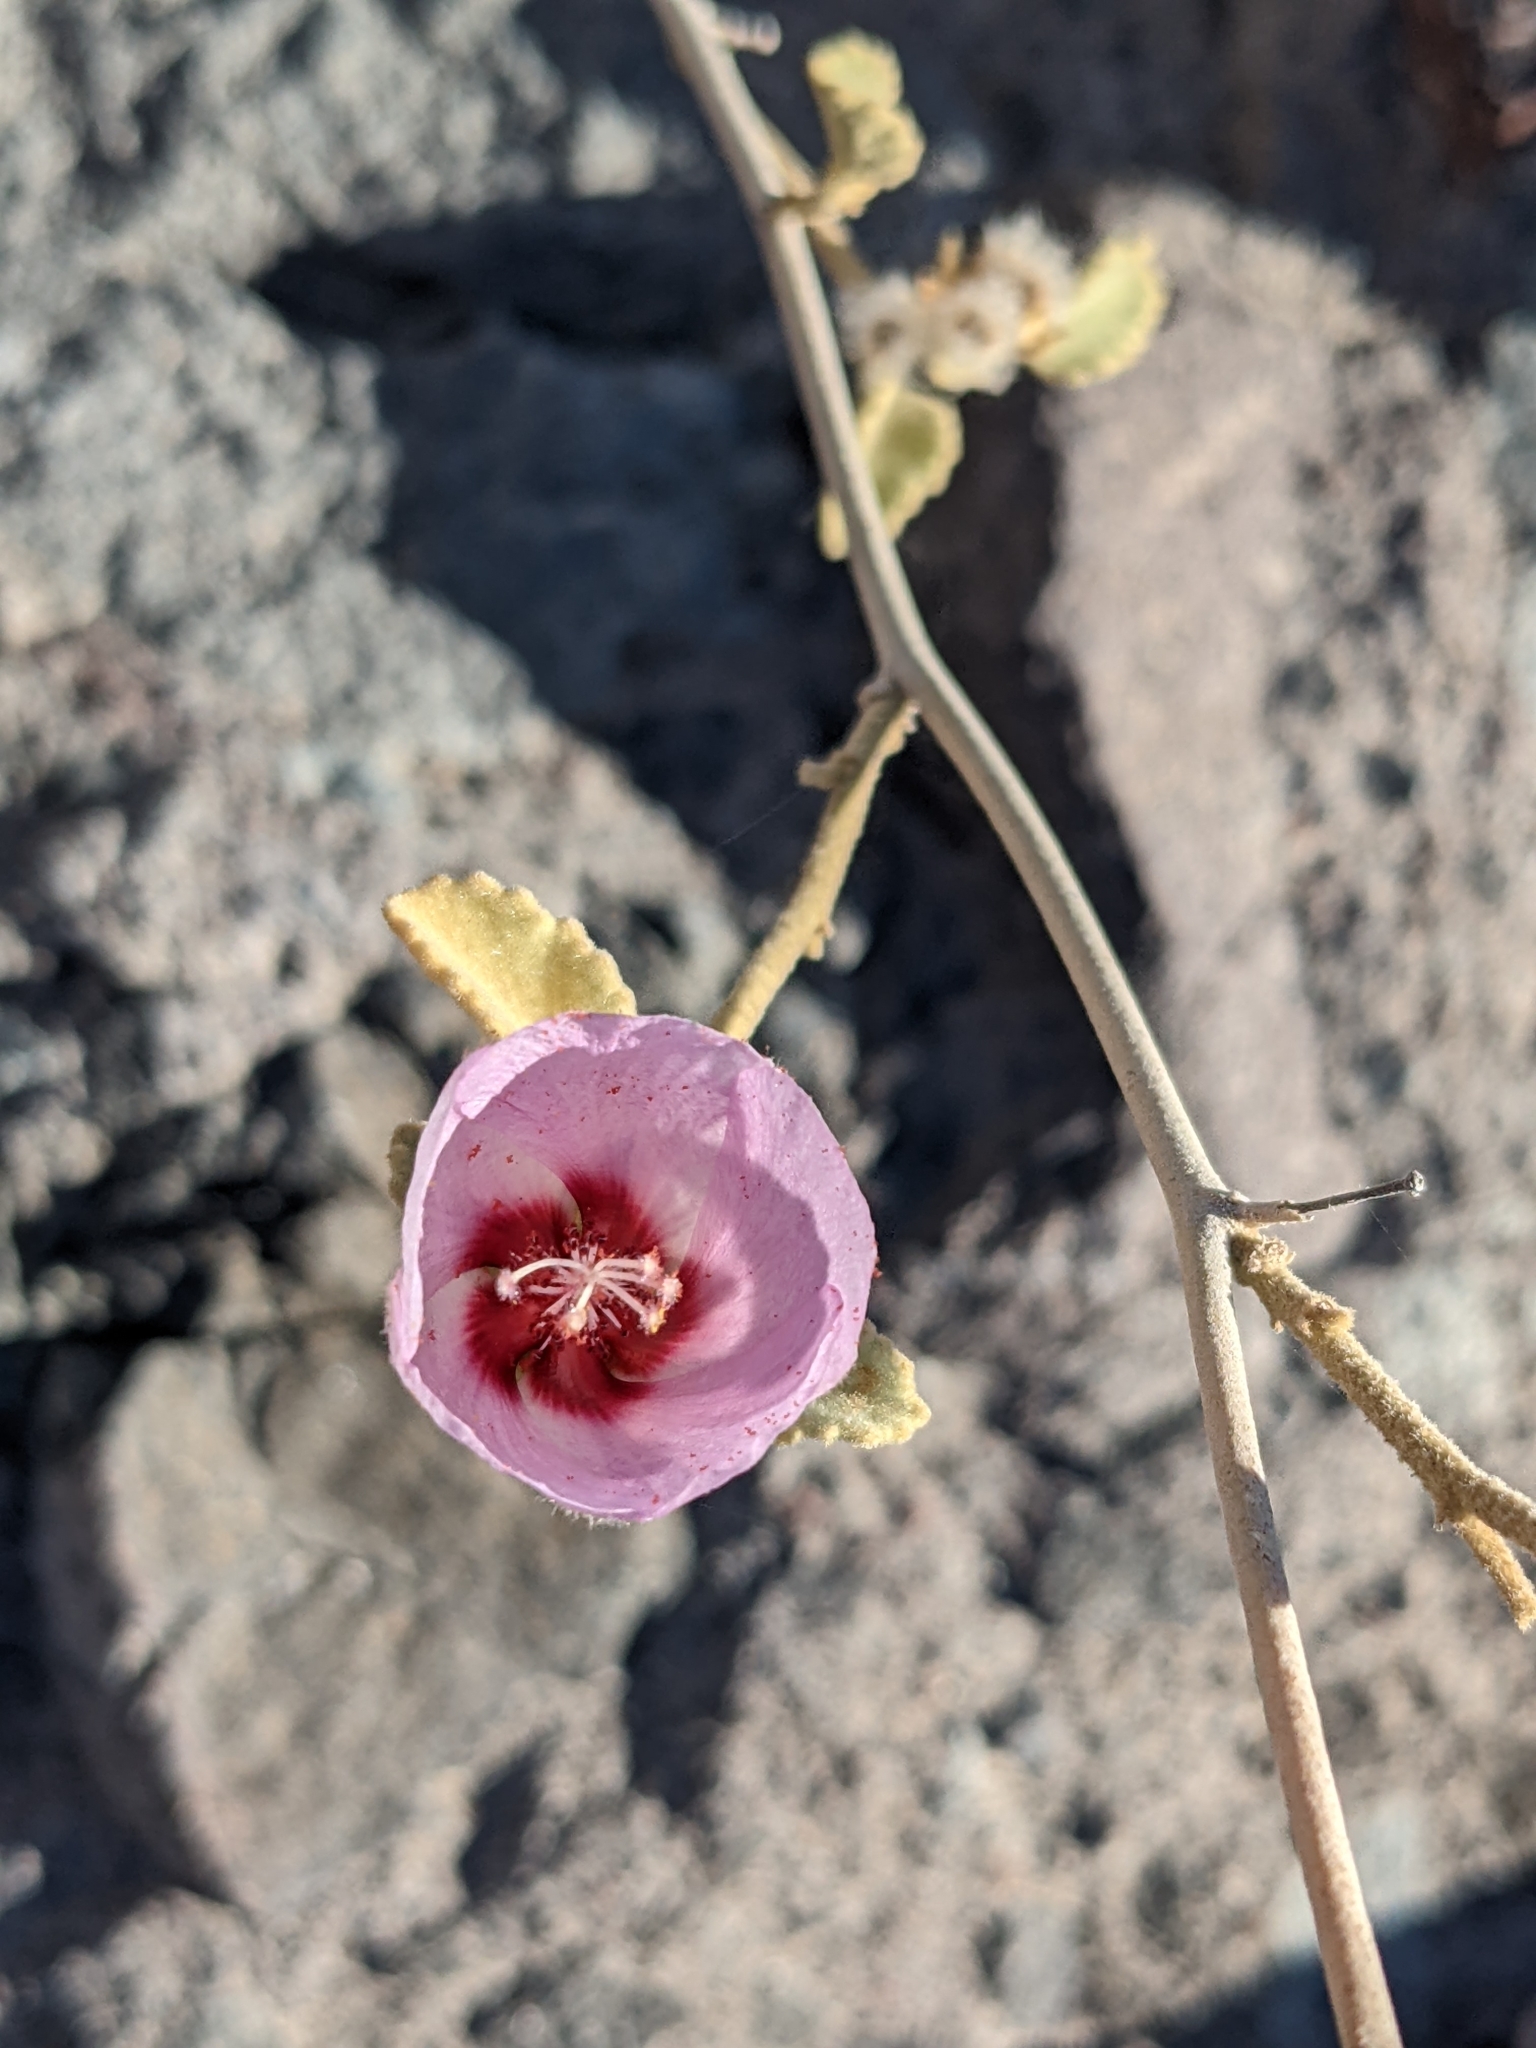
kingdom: Plantae
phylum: Tracheophyta
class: Magnoliopsida
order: Malvales
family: Malvaceae
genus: Hibiscus
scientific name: Hibiscus denudatus
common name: Paleface
